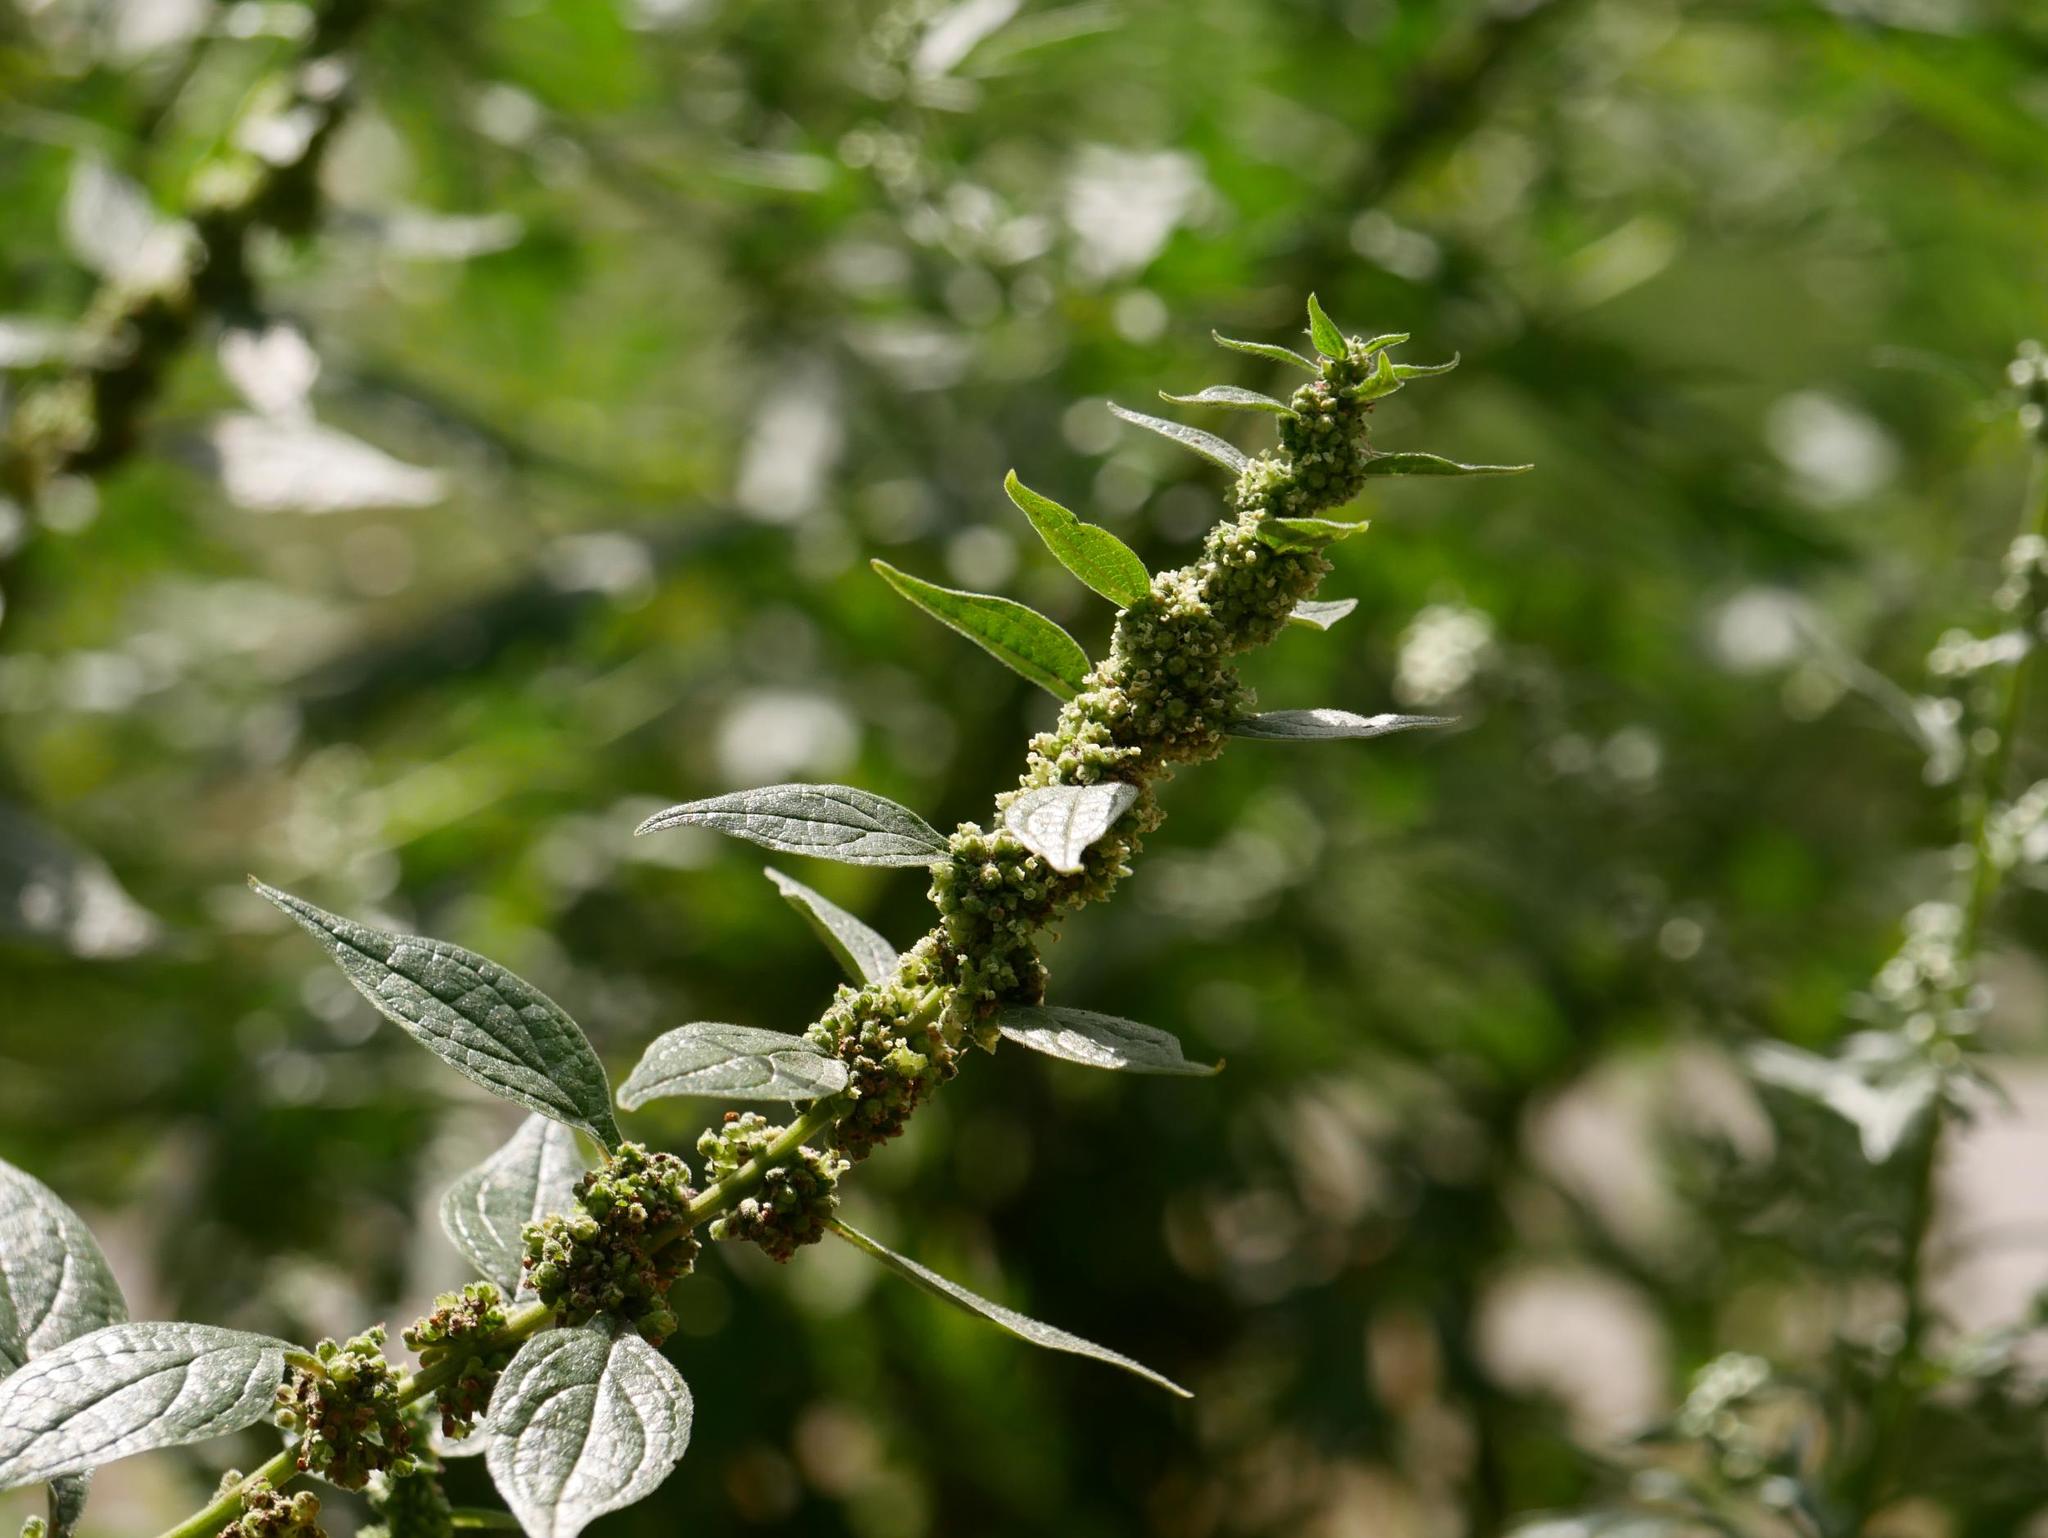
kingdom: Plantae
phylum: Tracheophyta
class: Magnoliopsida
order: Rosales
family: Urticaceae
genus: Parietaria
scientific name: Parietaria officinalis
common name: Eastern pellitory-of-the-wall
